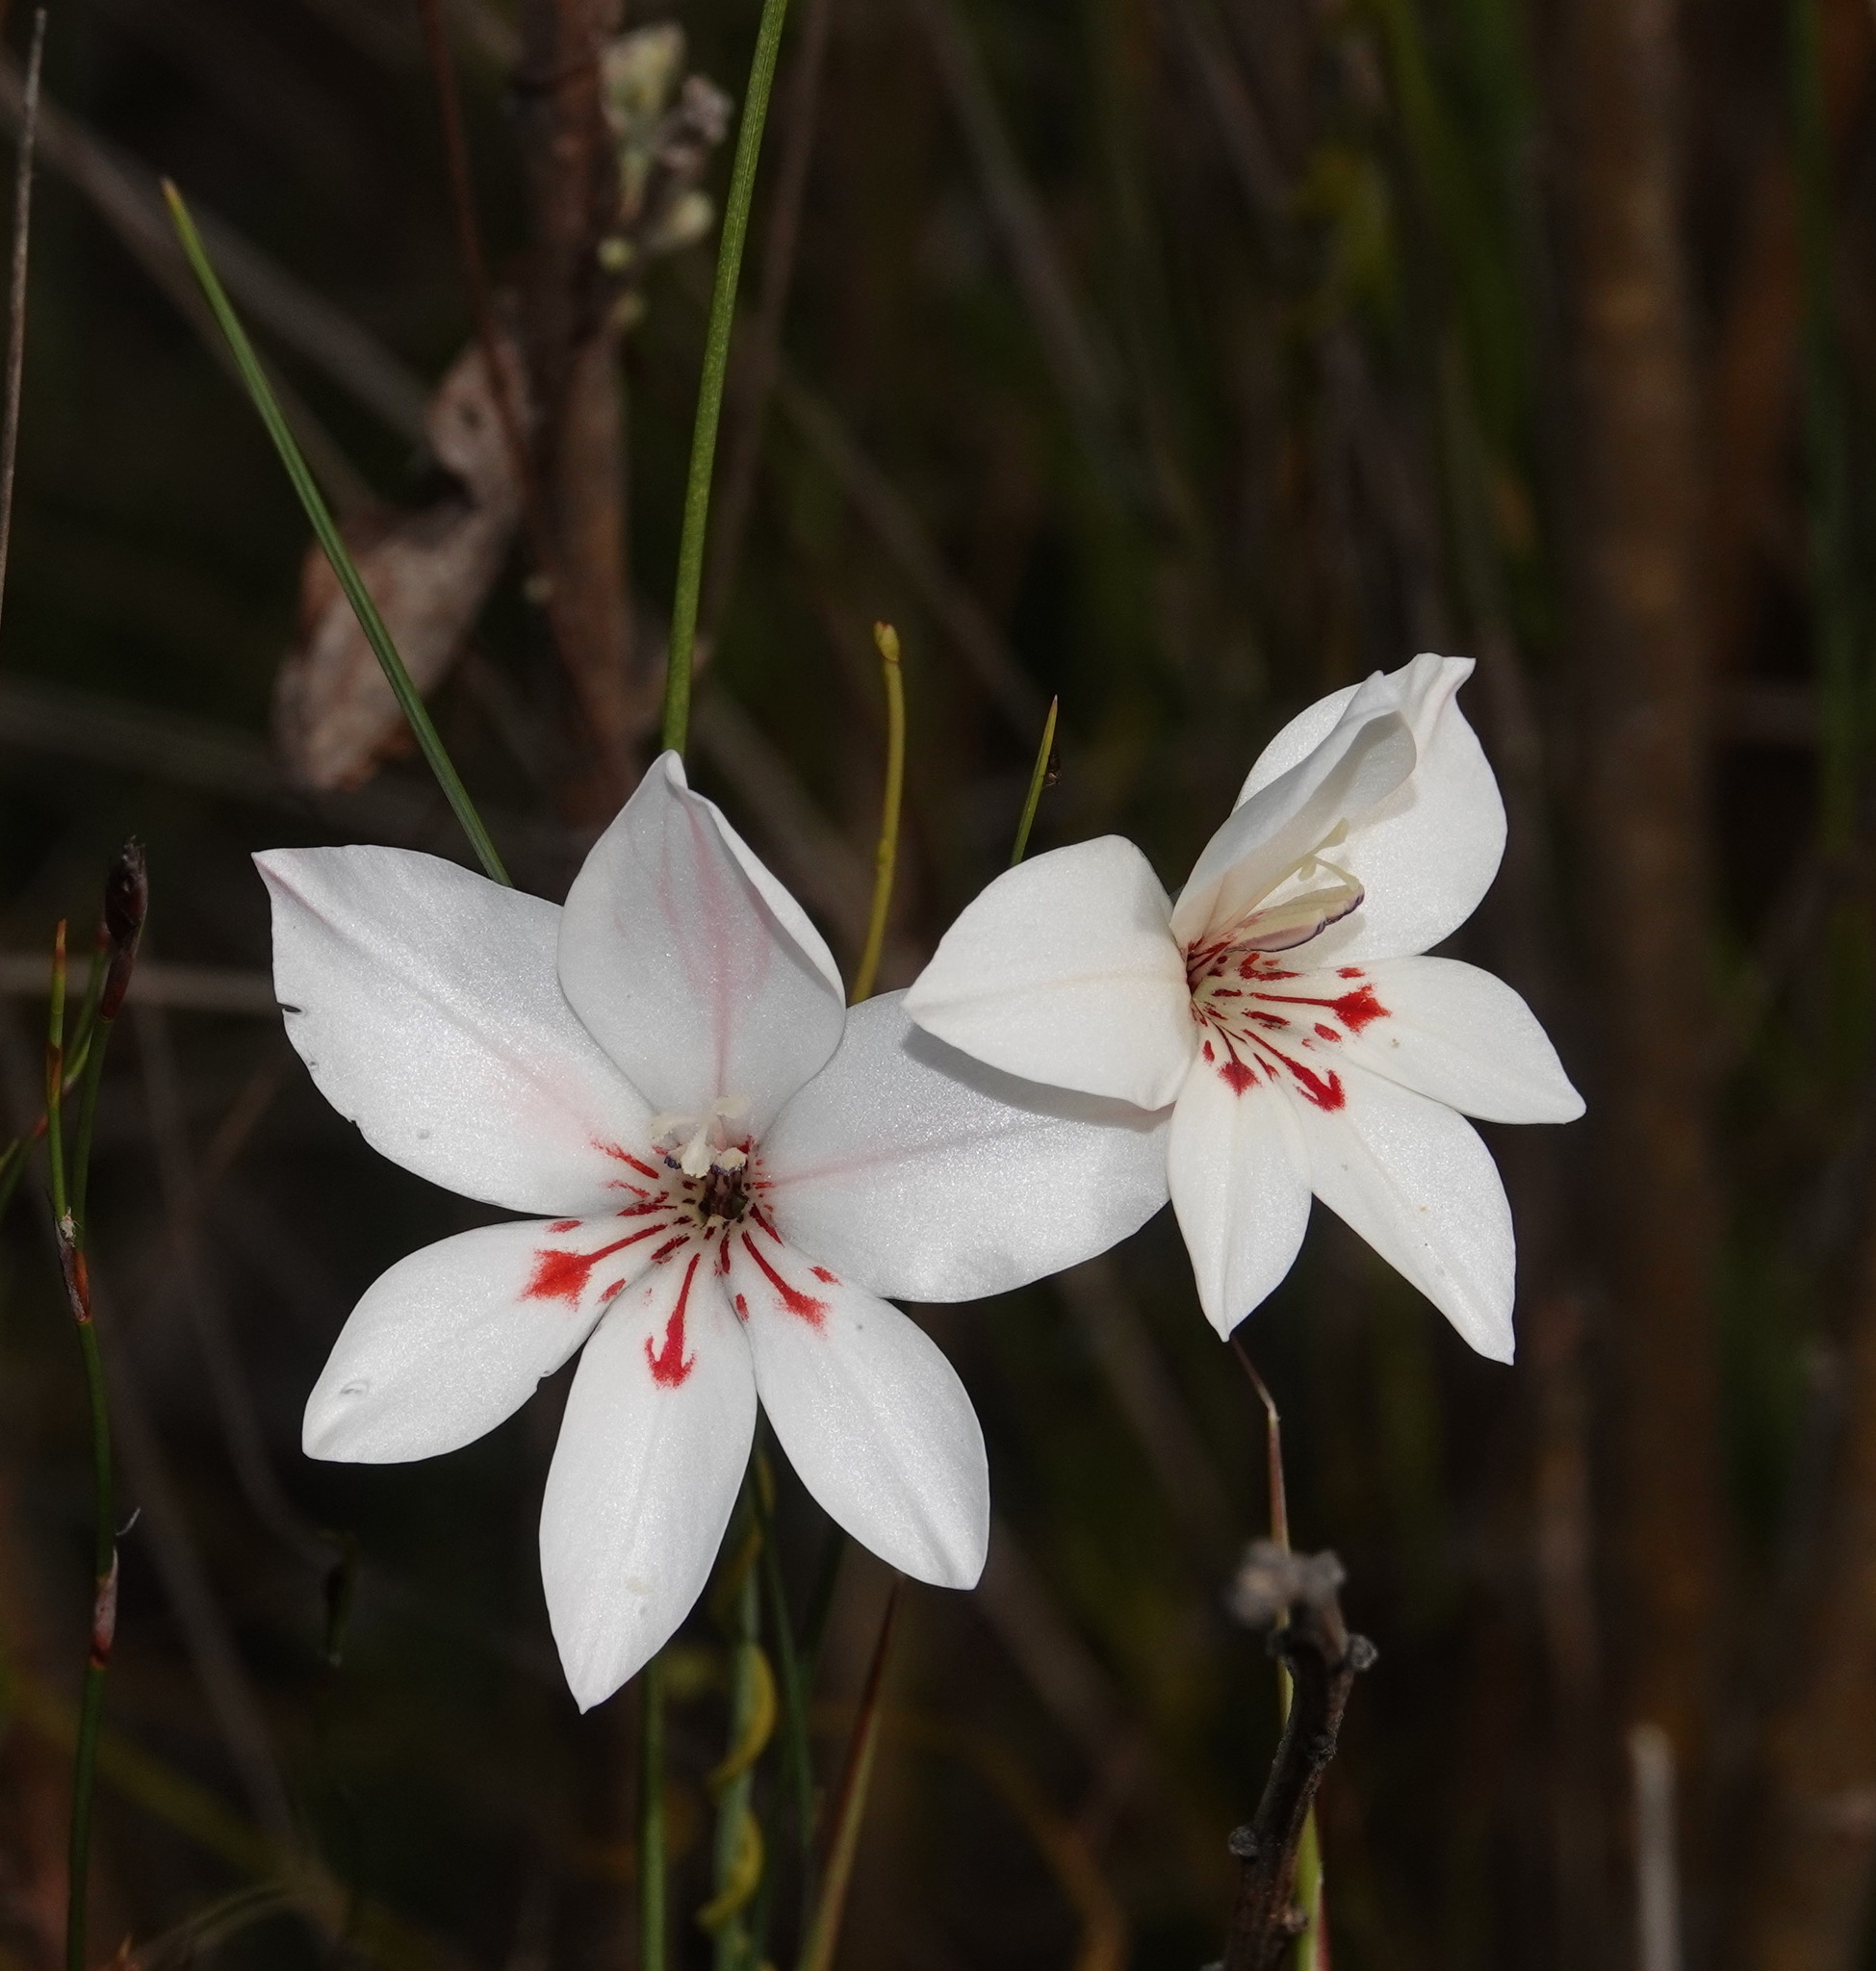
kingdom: Plantae
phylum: Tracheophyta
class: Liliopsida
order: Asparagales
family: Iridaceae
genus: Gladiolus
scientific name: Gladiolus debilis
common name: Painted-lady
